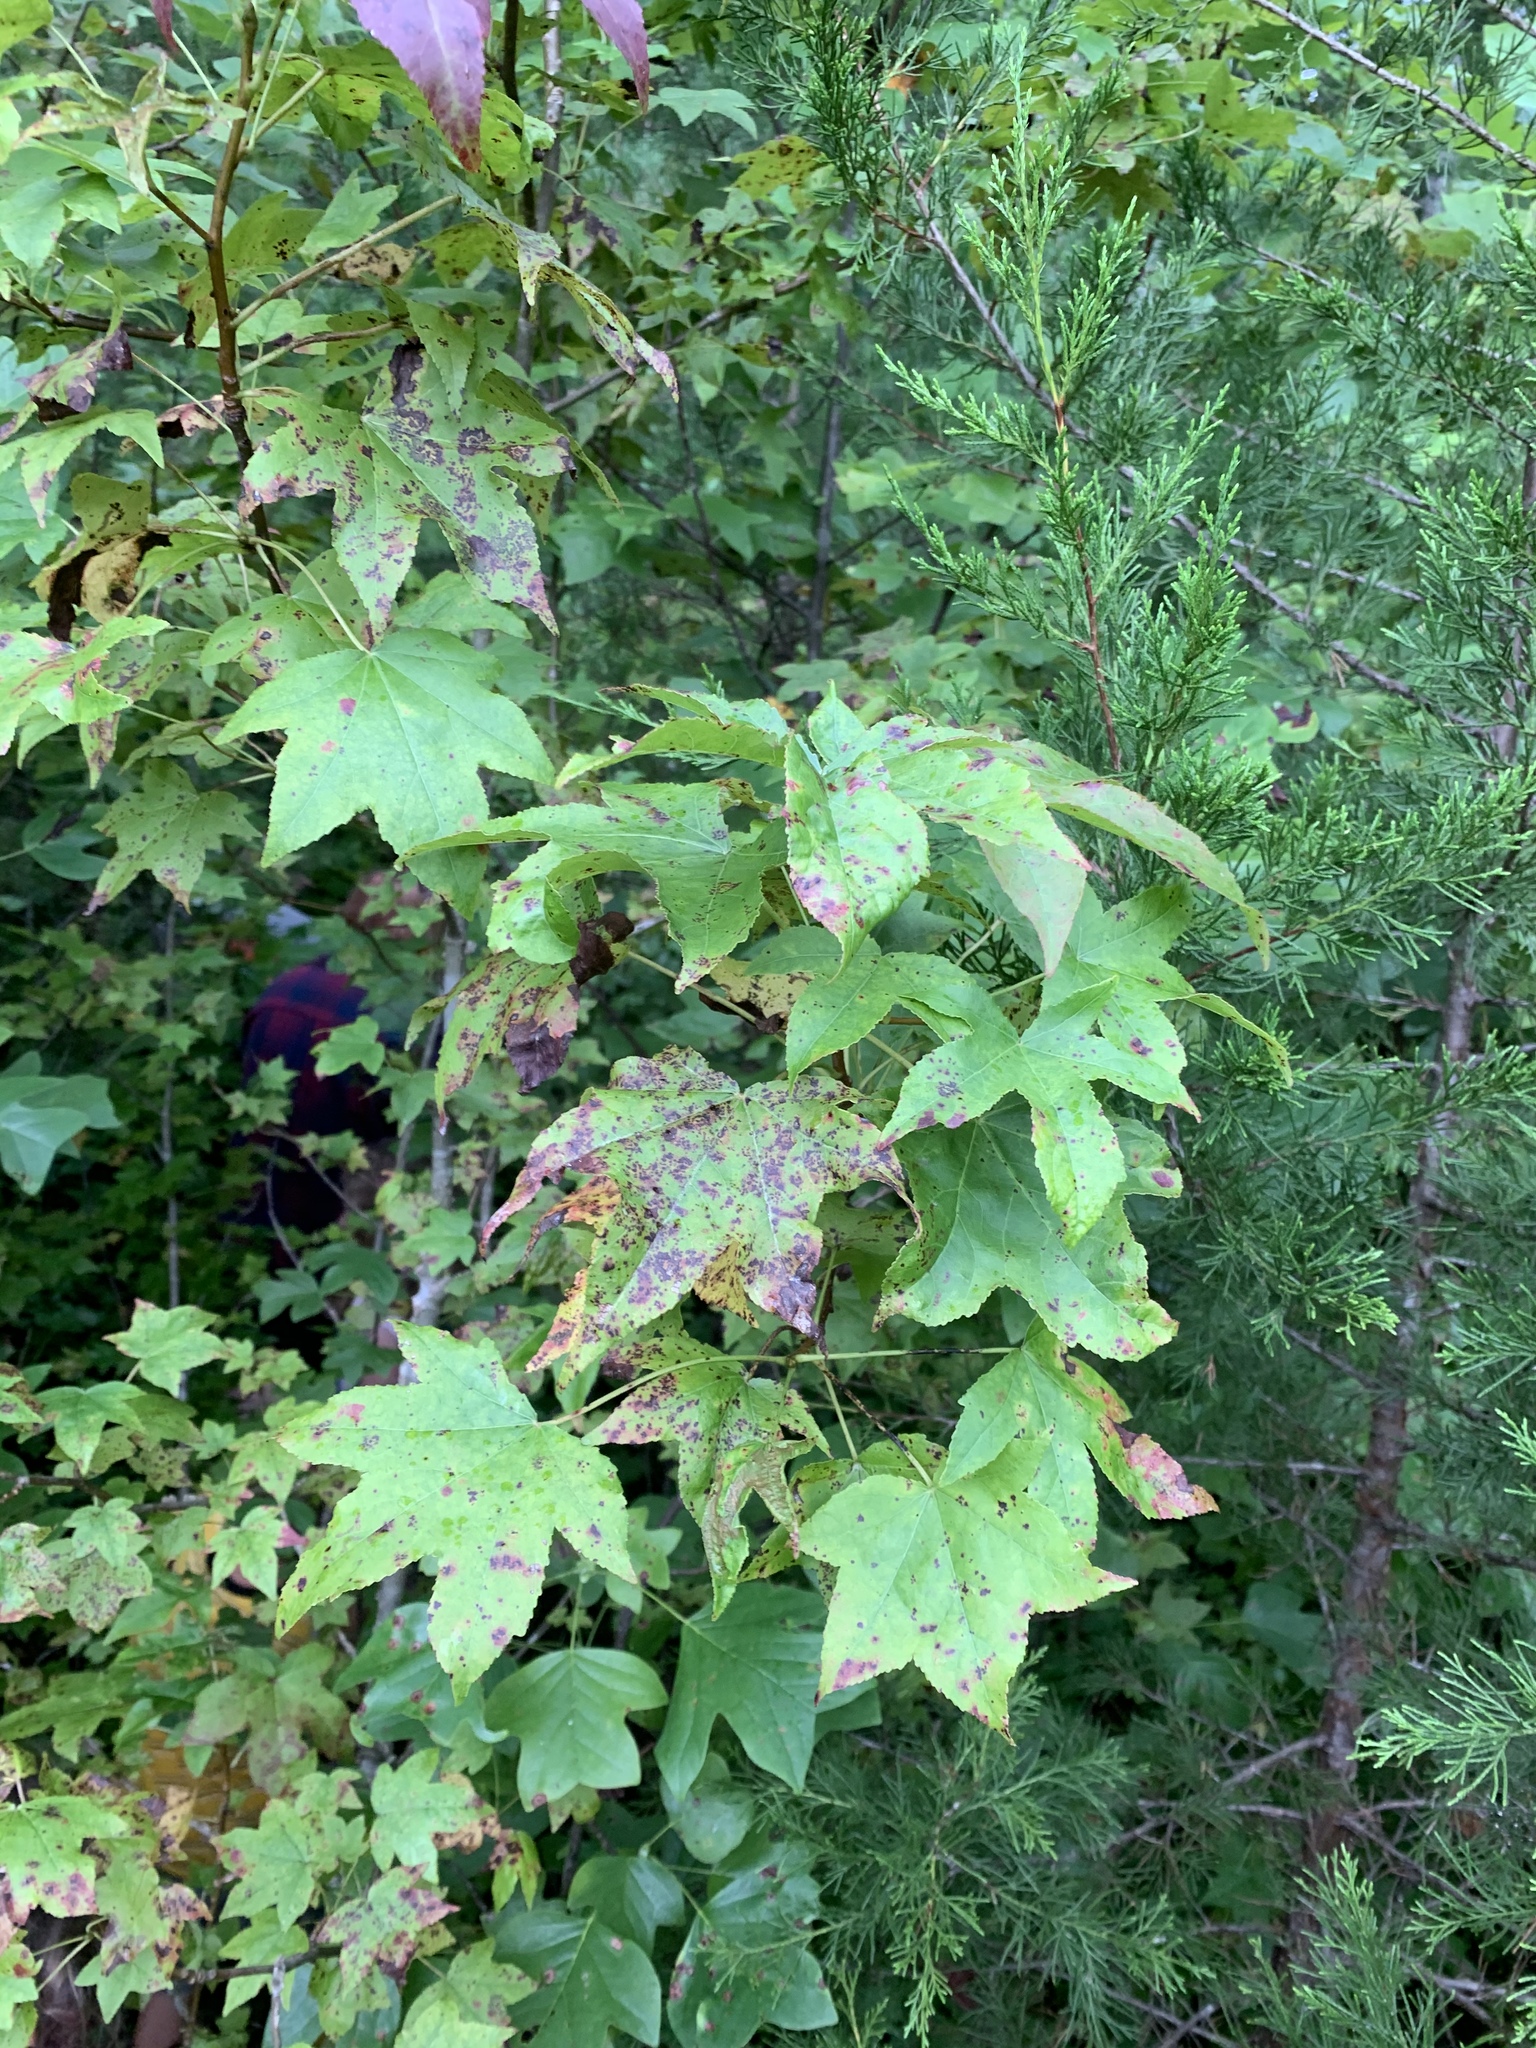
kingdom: Plantae
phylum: Tracheophyta
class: Magnoliopsida
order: Saxifragales
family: Altingiaceae
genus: Liquidambar
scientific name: Liquidambar styraciflua
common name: Sweet gum
